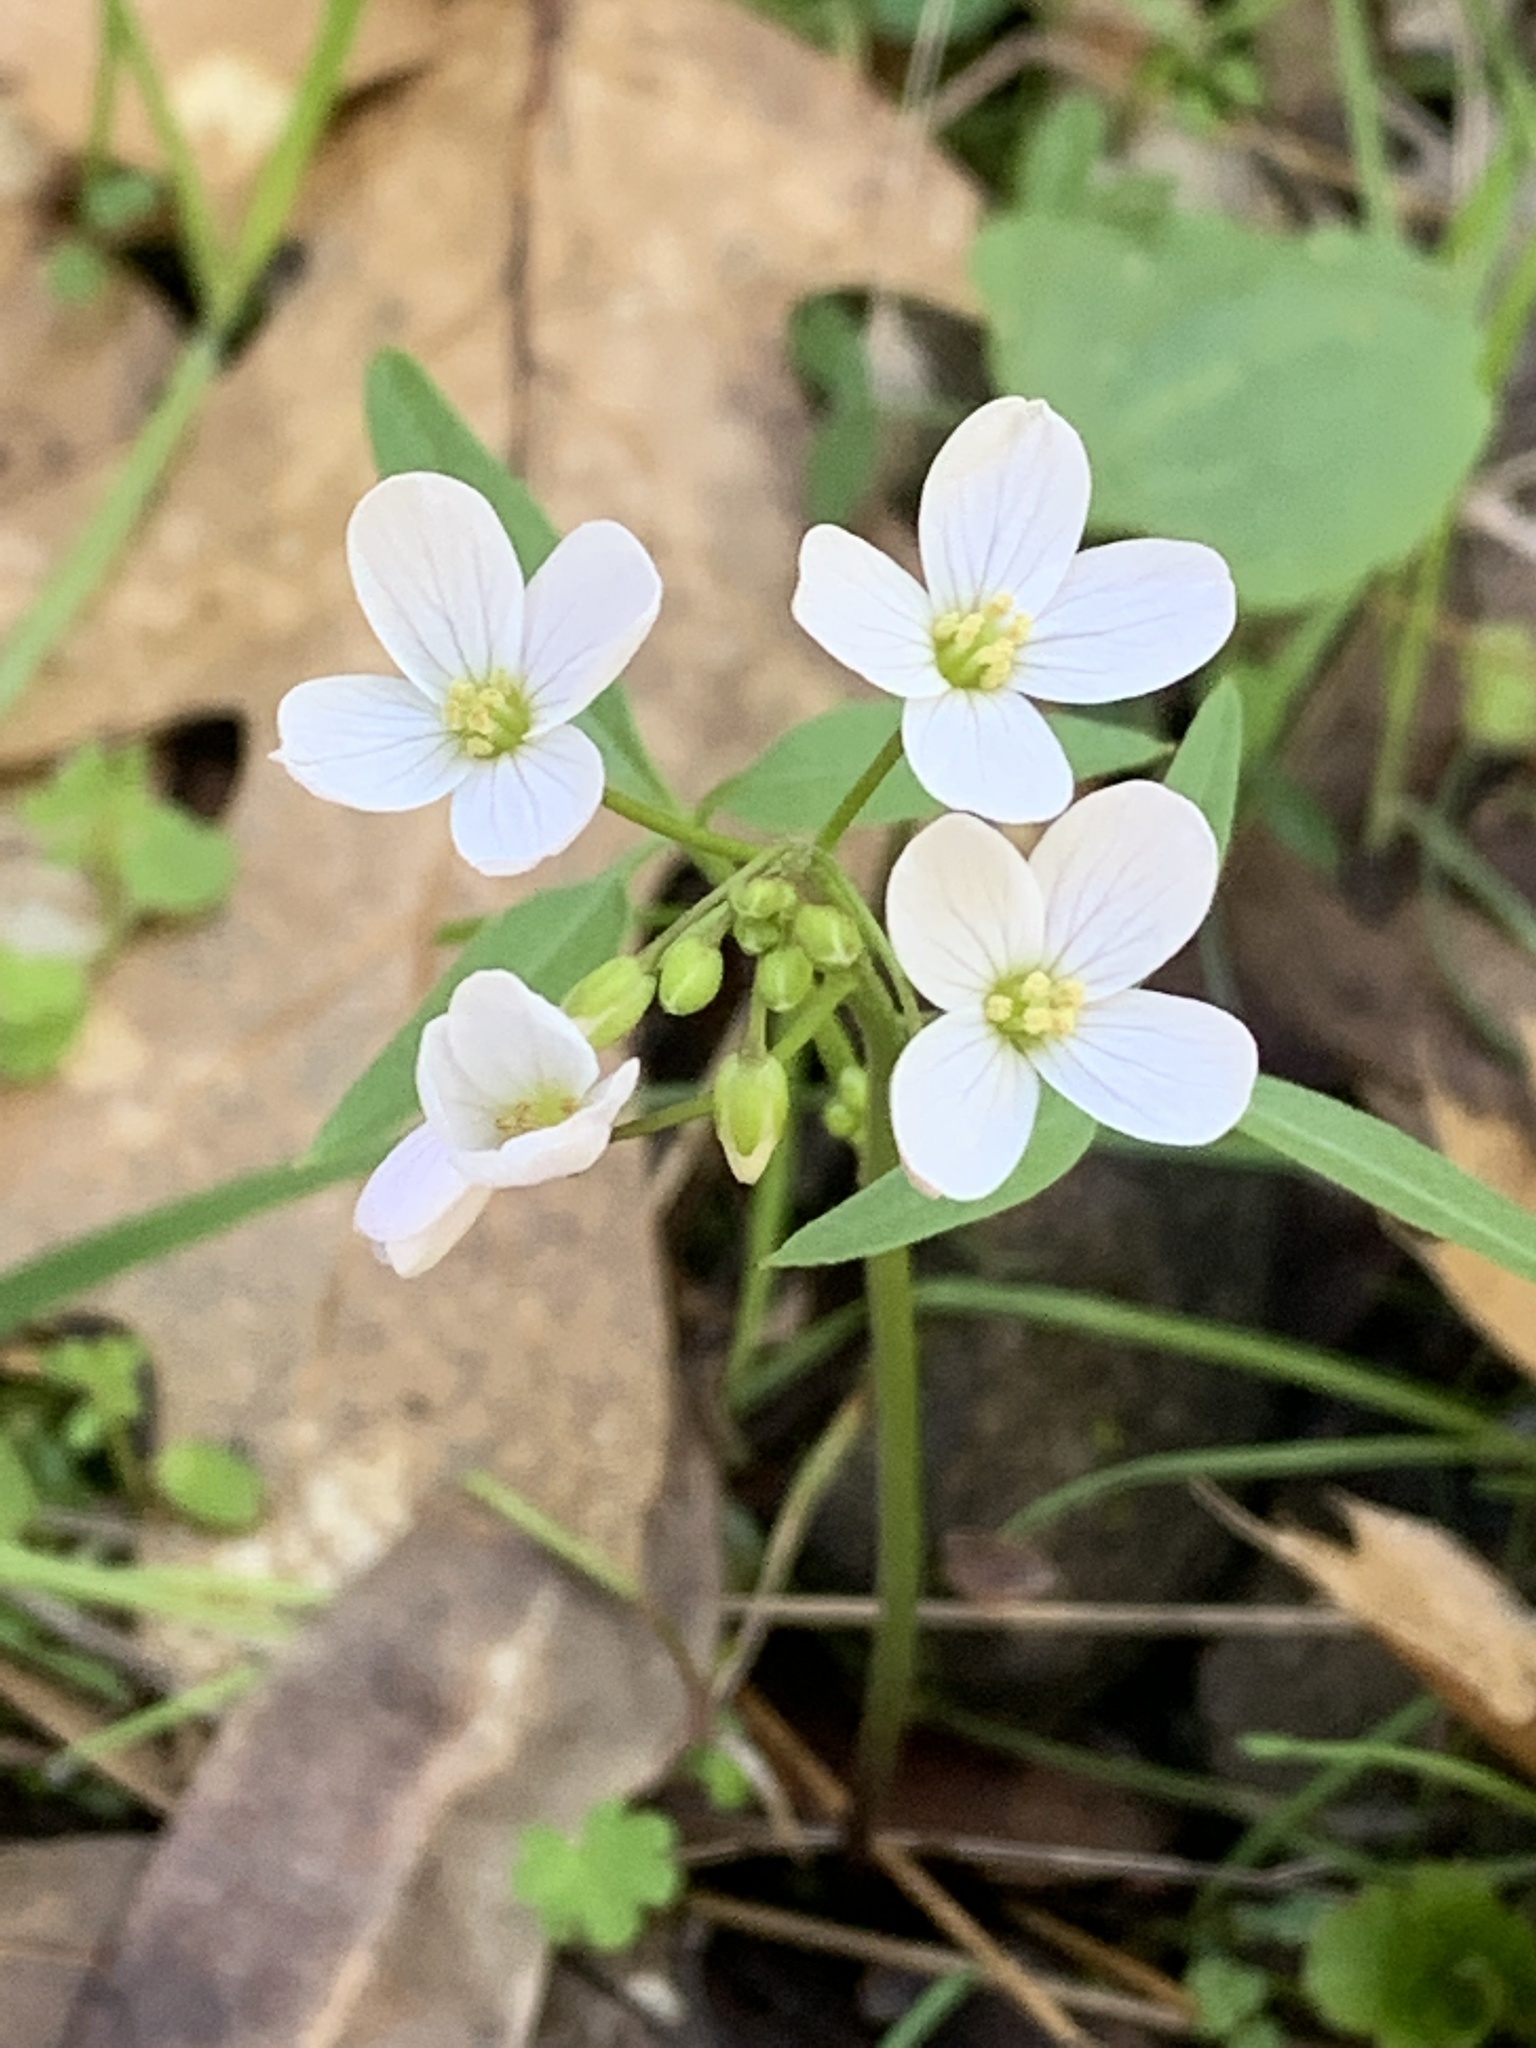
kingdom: Plantae
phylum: Tracheophyta
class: Magnoliopsida
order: Brassicales
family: Brassicaceae
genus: Cardamine
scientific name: Cardamine californica
